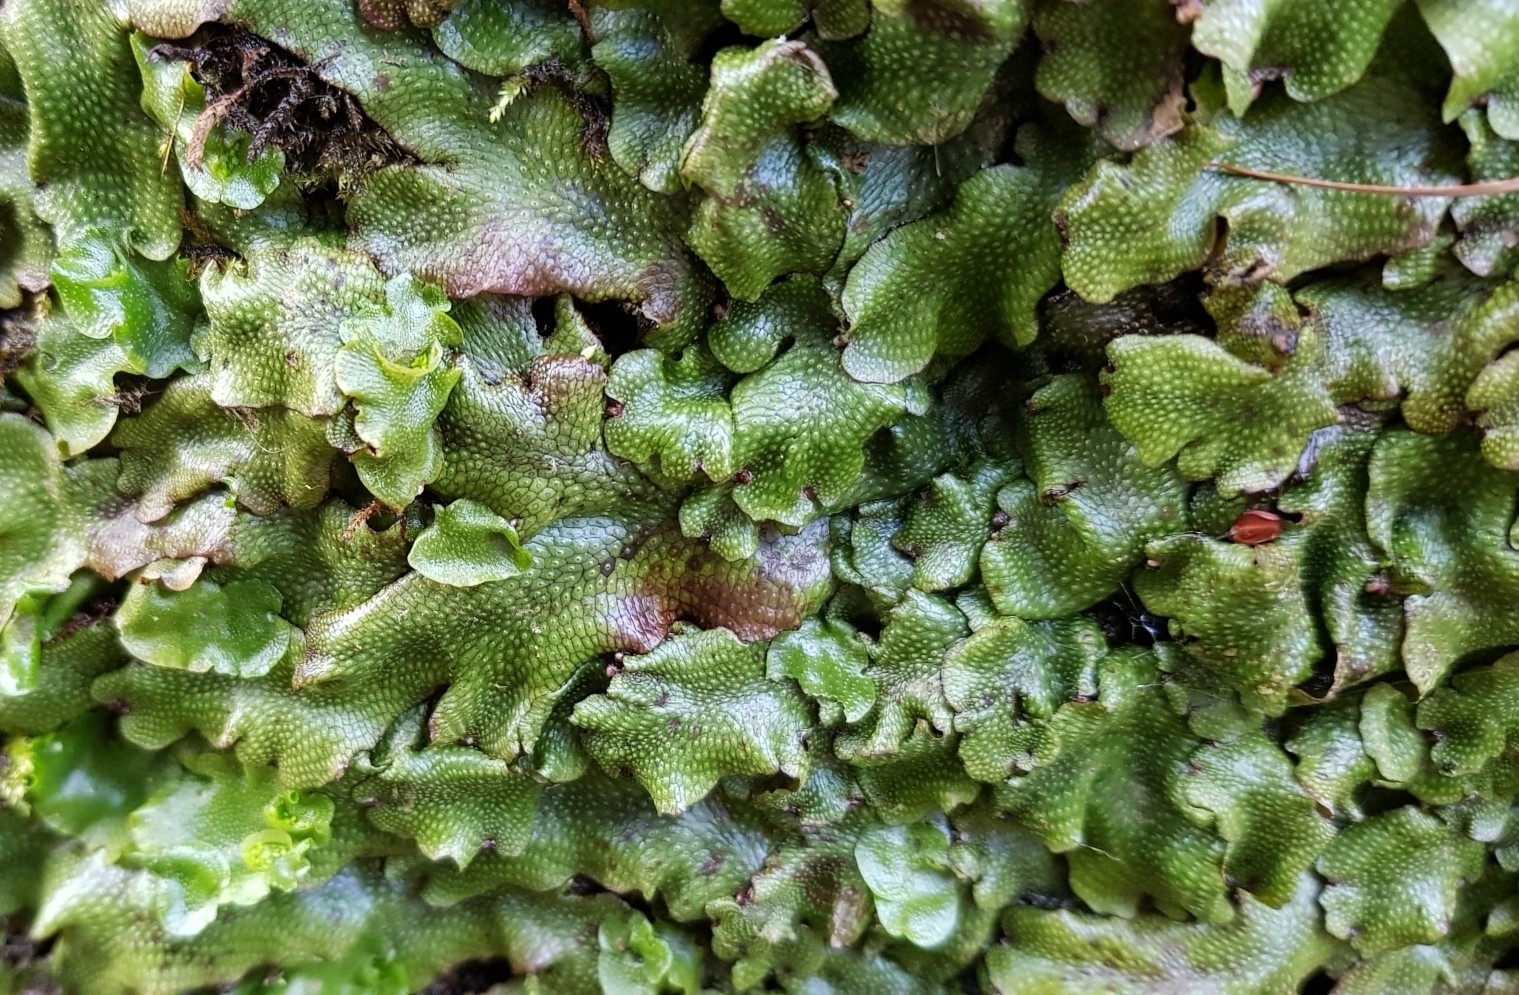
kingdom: Plantae
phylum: Marchantiophyta
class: Marchantiopsida
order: Marchantiales
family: Conocephalaceae
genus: Conocephalum
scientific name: Conocephalum conicum
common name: Great scented liverwort
